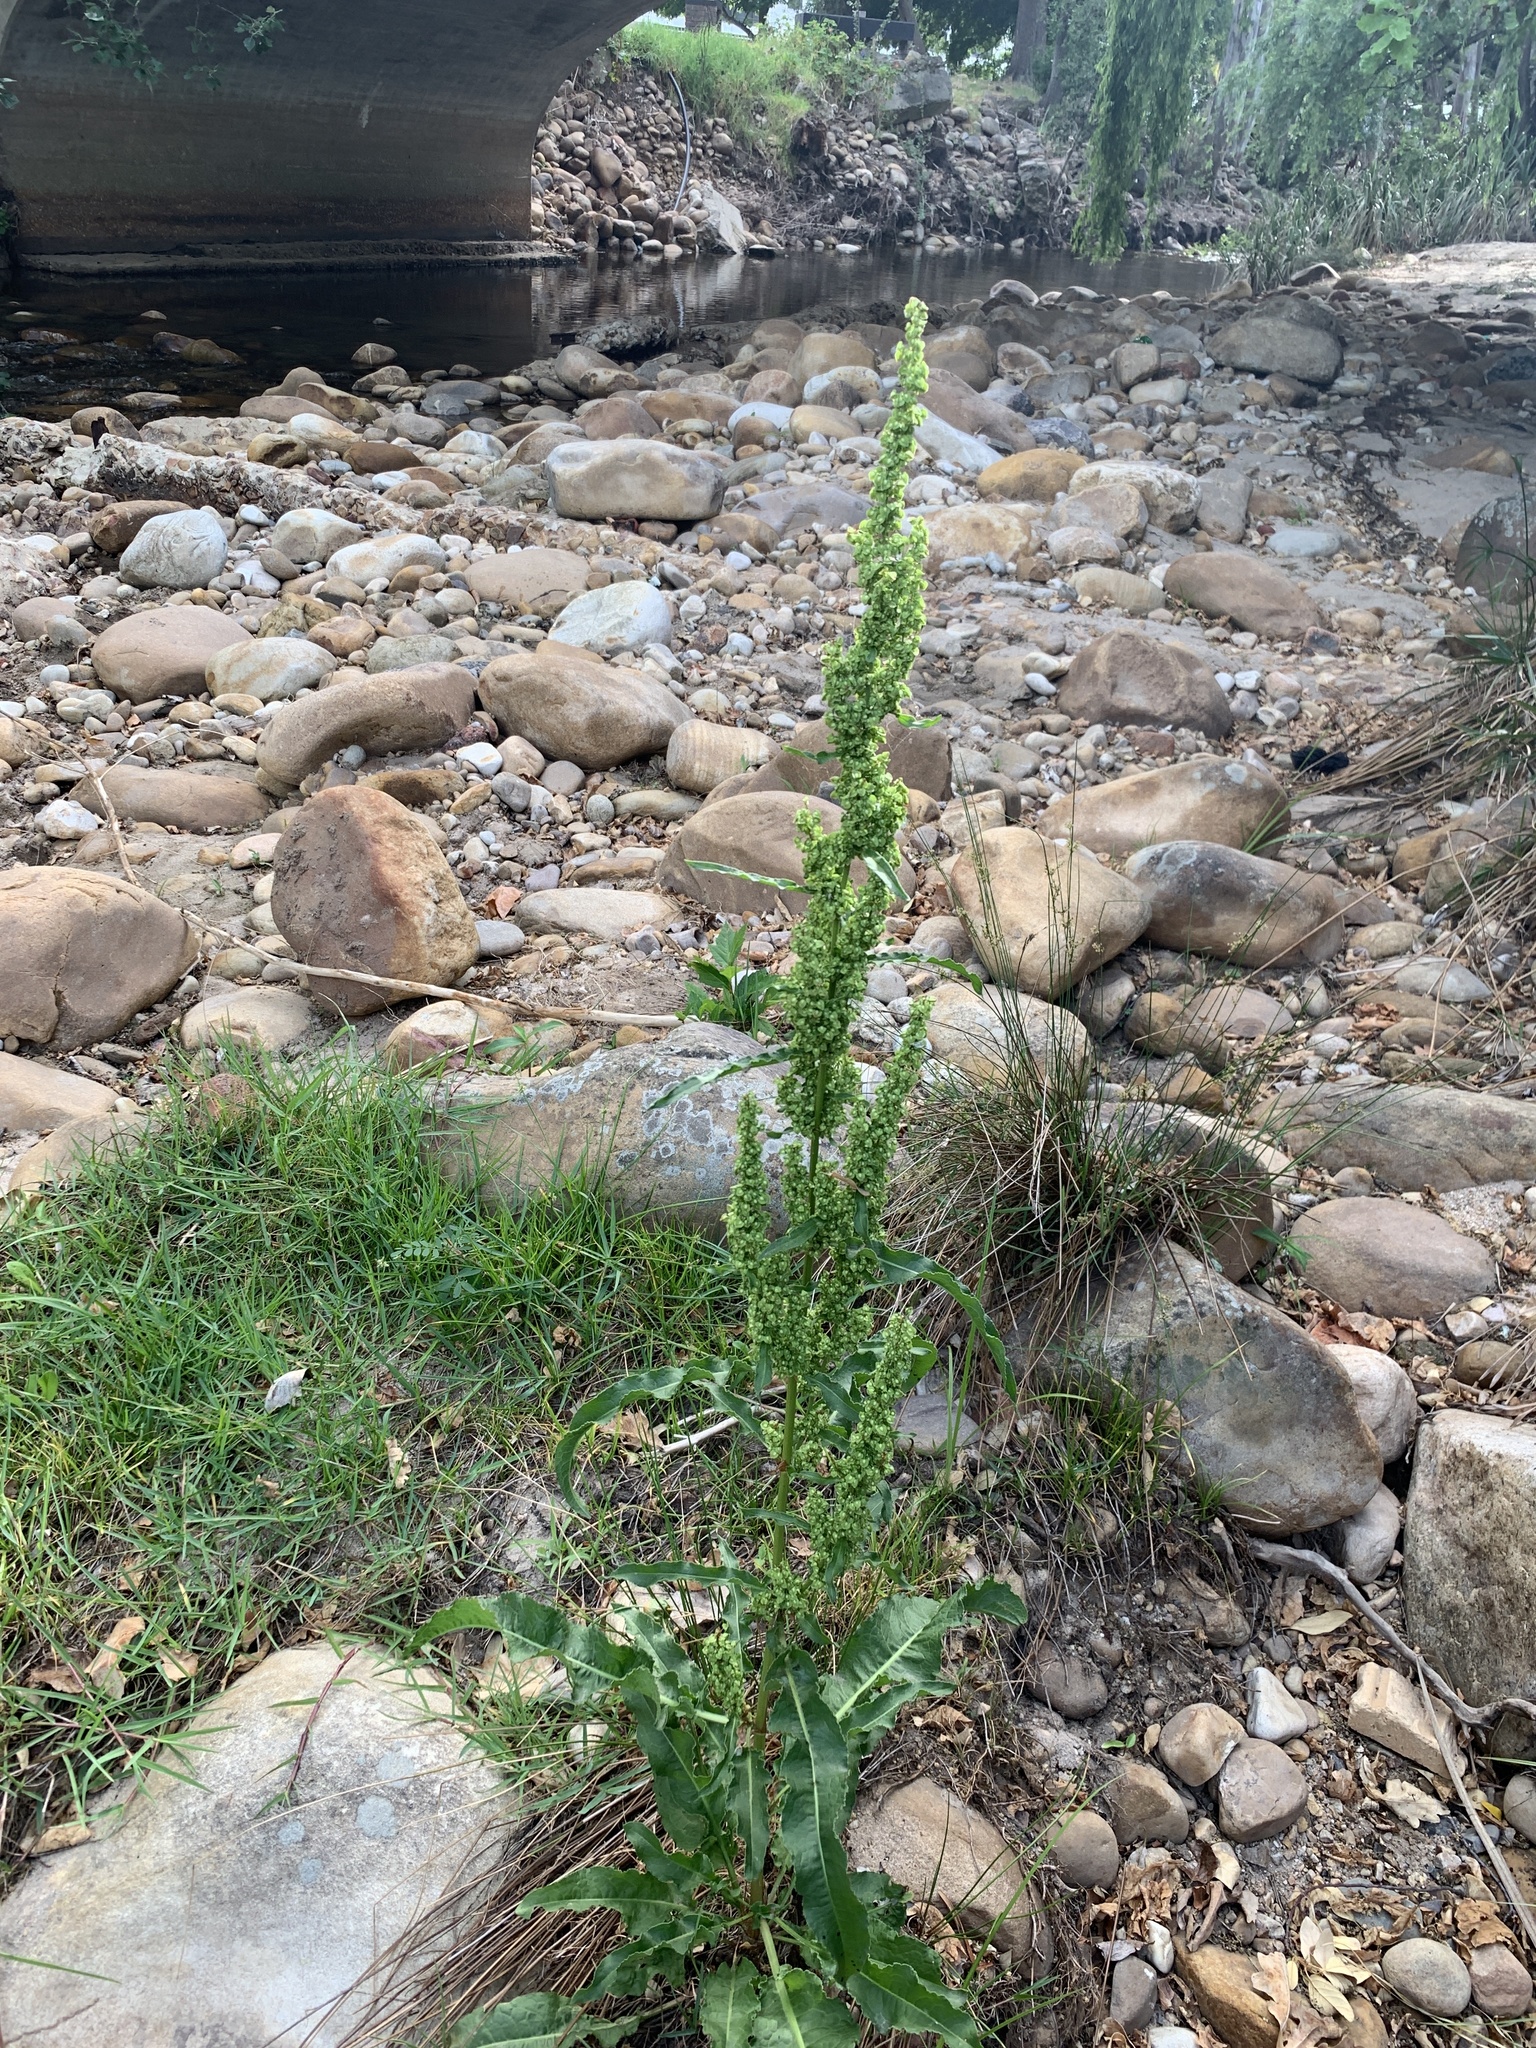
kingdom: Plantae
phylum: Tracheophyta
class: Magnoliopsida
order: Caryophyllales
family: Polygonaceae
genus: Rumex
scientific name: Rumex crispus
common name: Curled dock
